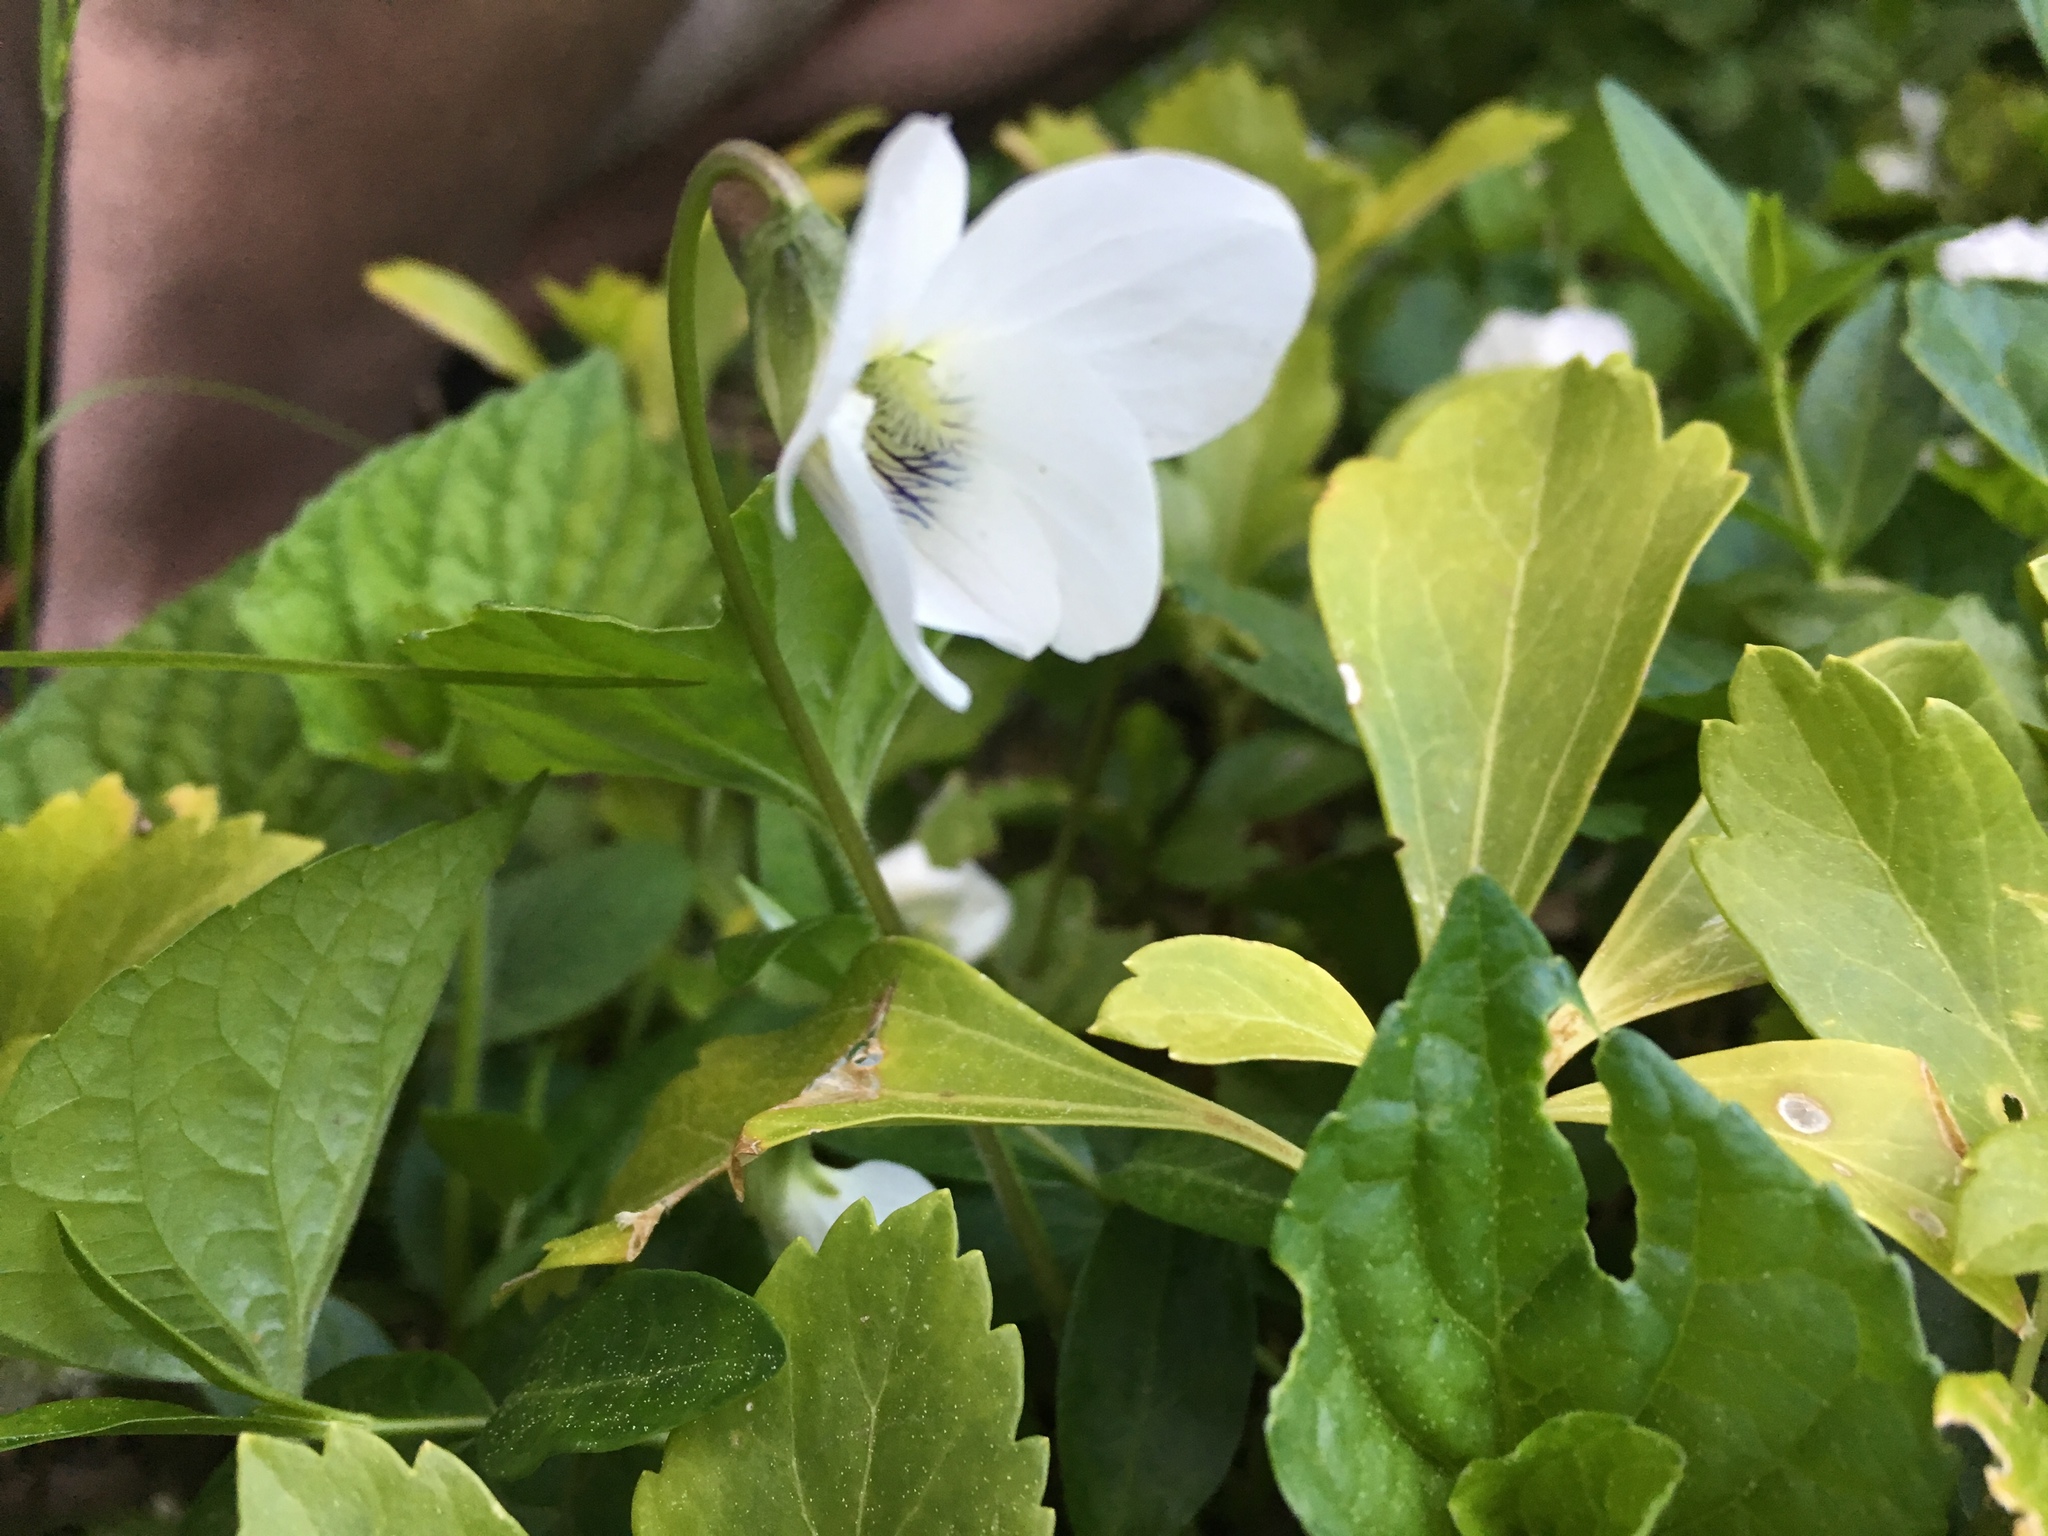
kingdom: Plantae
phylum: Tracheophyta
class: Magnoliopsida
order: Malpighiales
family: Violaceae
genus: Viola
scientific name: Viola blanda
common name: Sweet white violet
